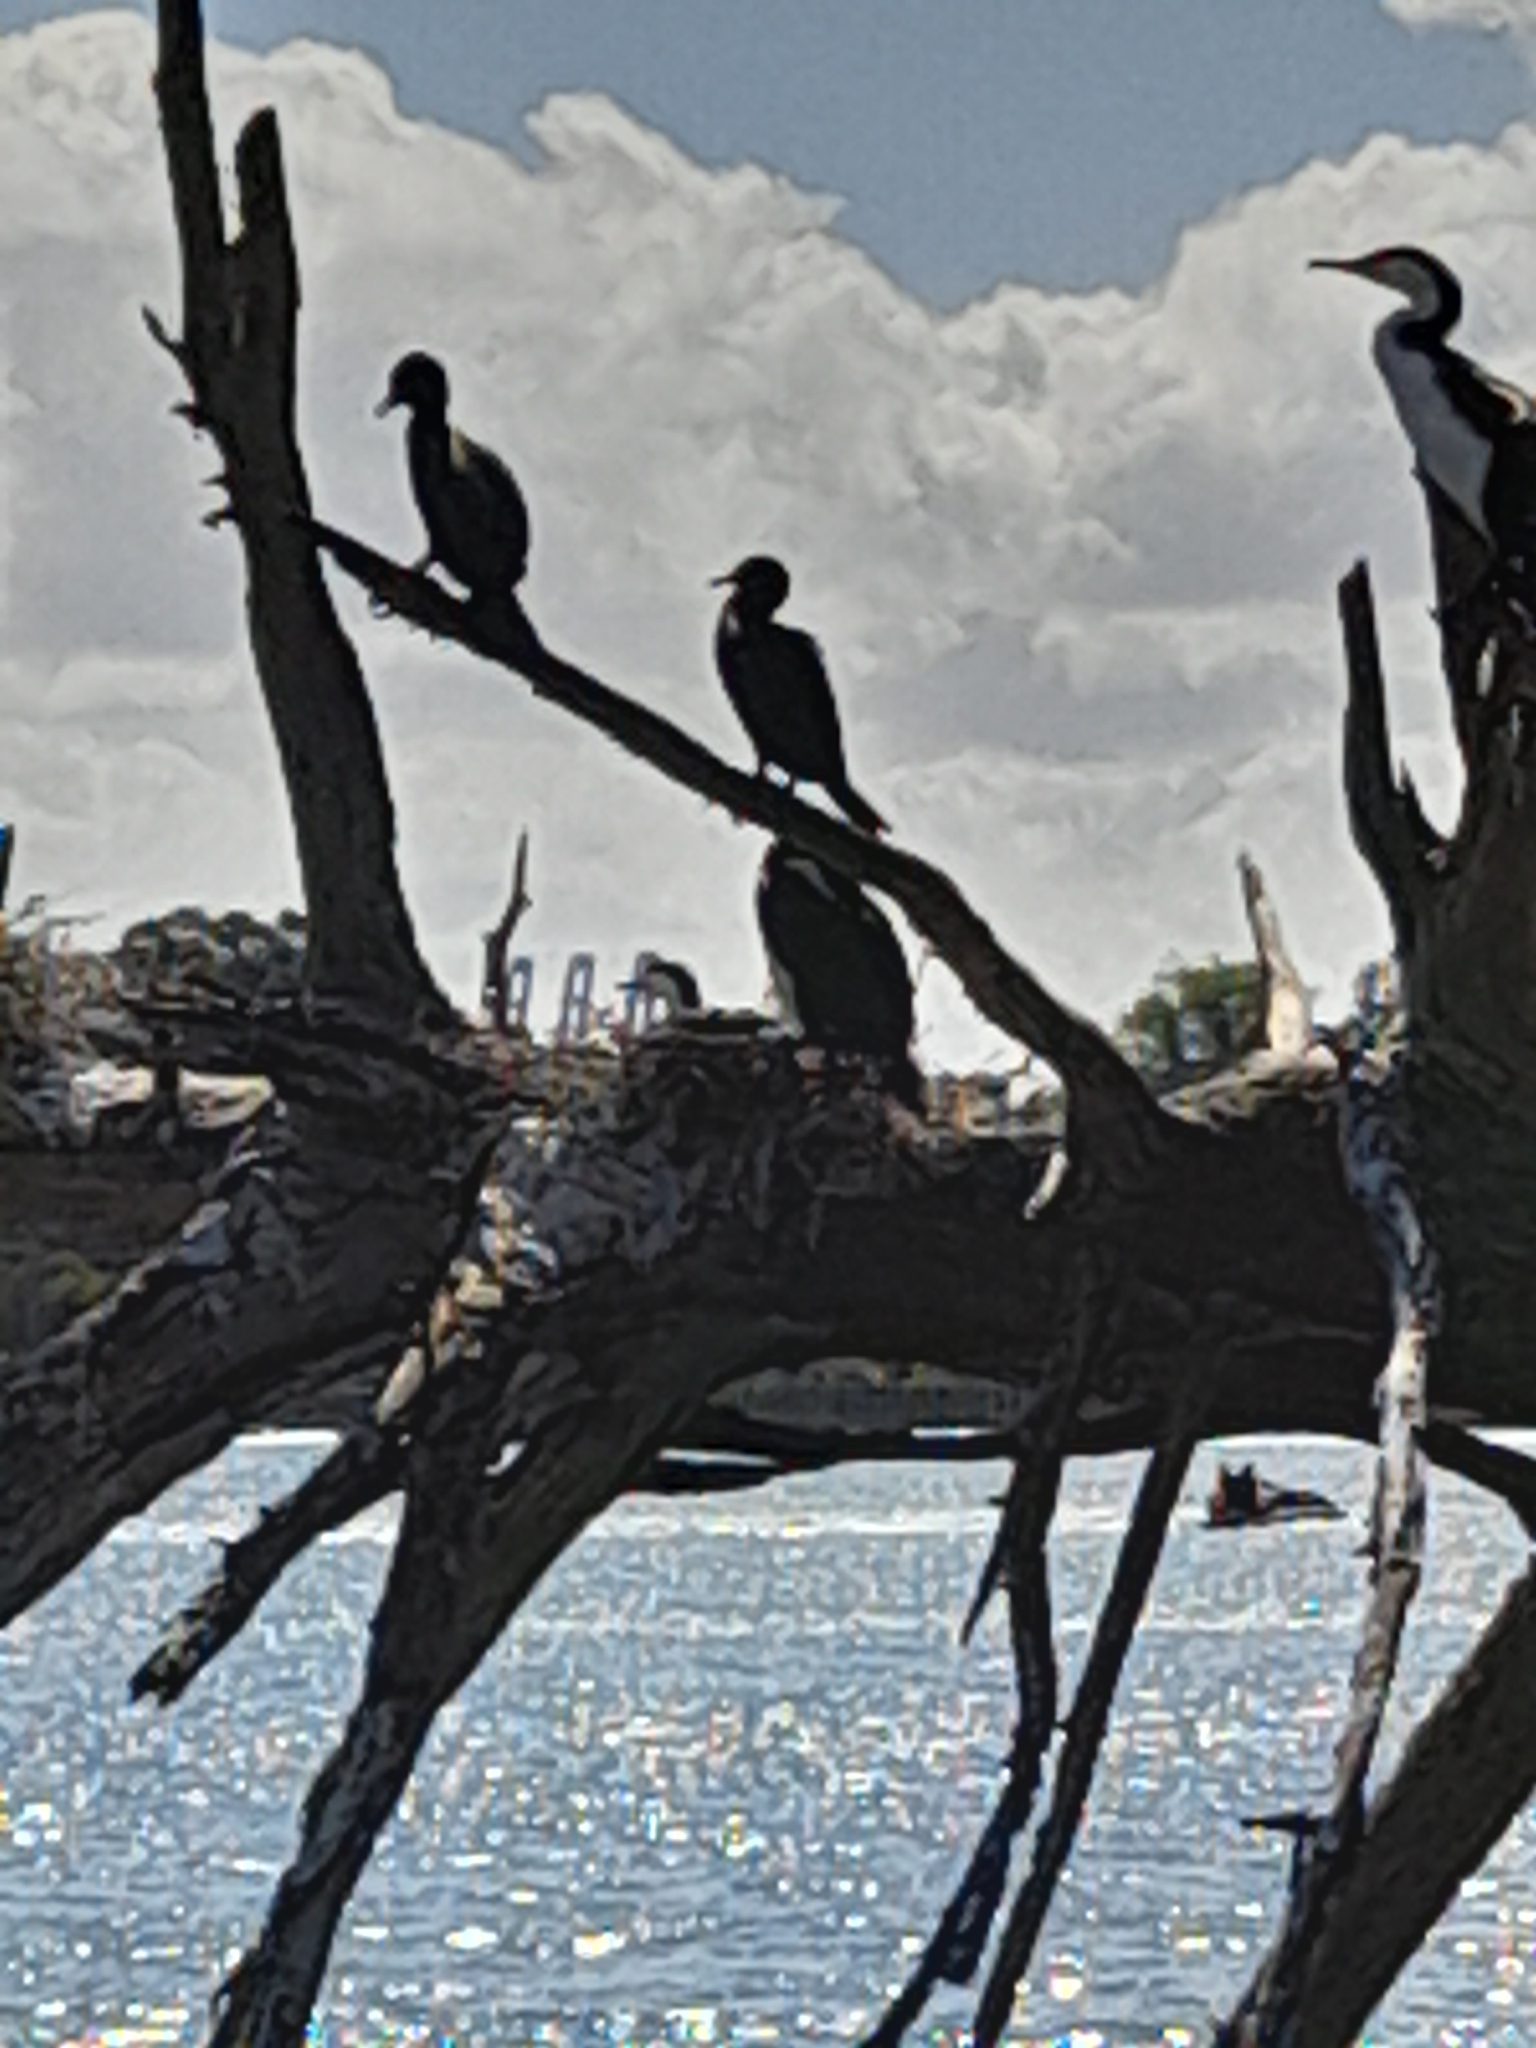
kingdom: Animalia
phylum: Chordata
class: Aves
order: Suliformes
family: Phalacrocoracidae
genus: Phalacrocorax
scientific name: Phalacrocorax varius
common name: Pied cormorant
